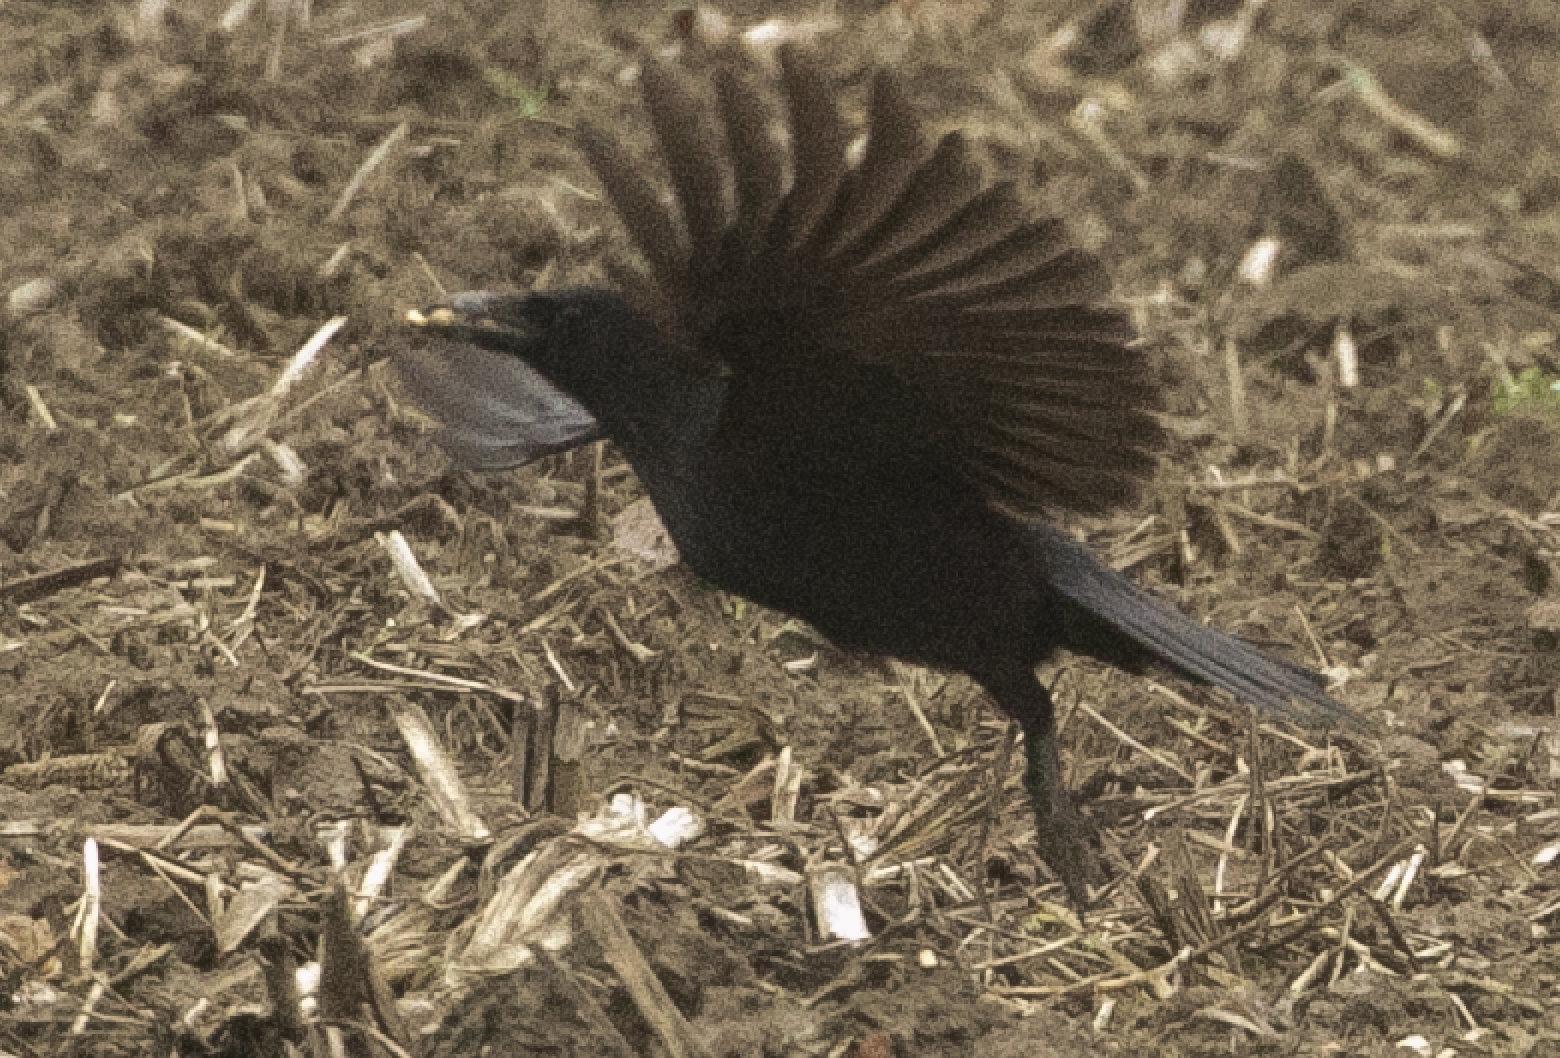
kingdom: Animalia
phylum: Chordata
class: Aves
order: Passeriformes
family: Corvidae
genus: Corvus
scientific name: Corvus corone
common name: Carrion crow
